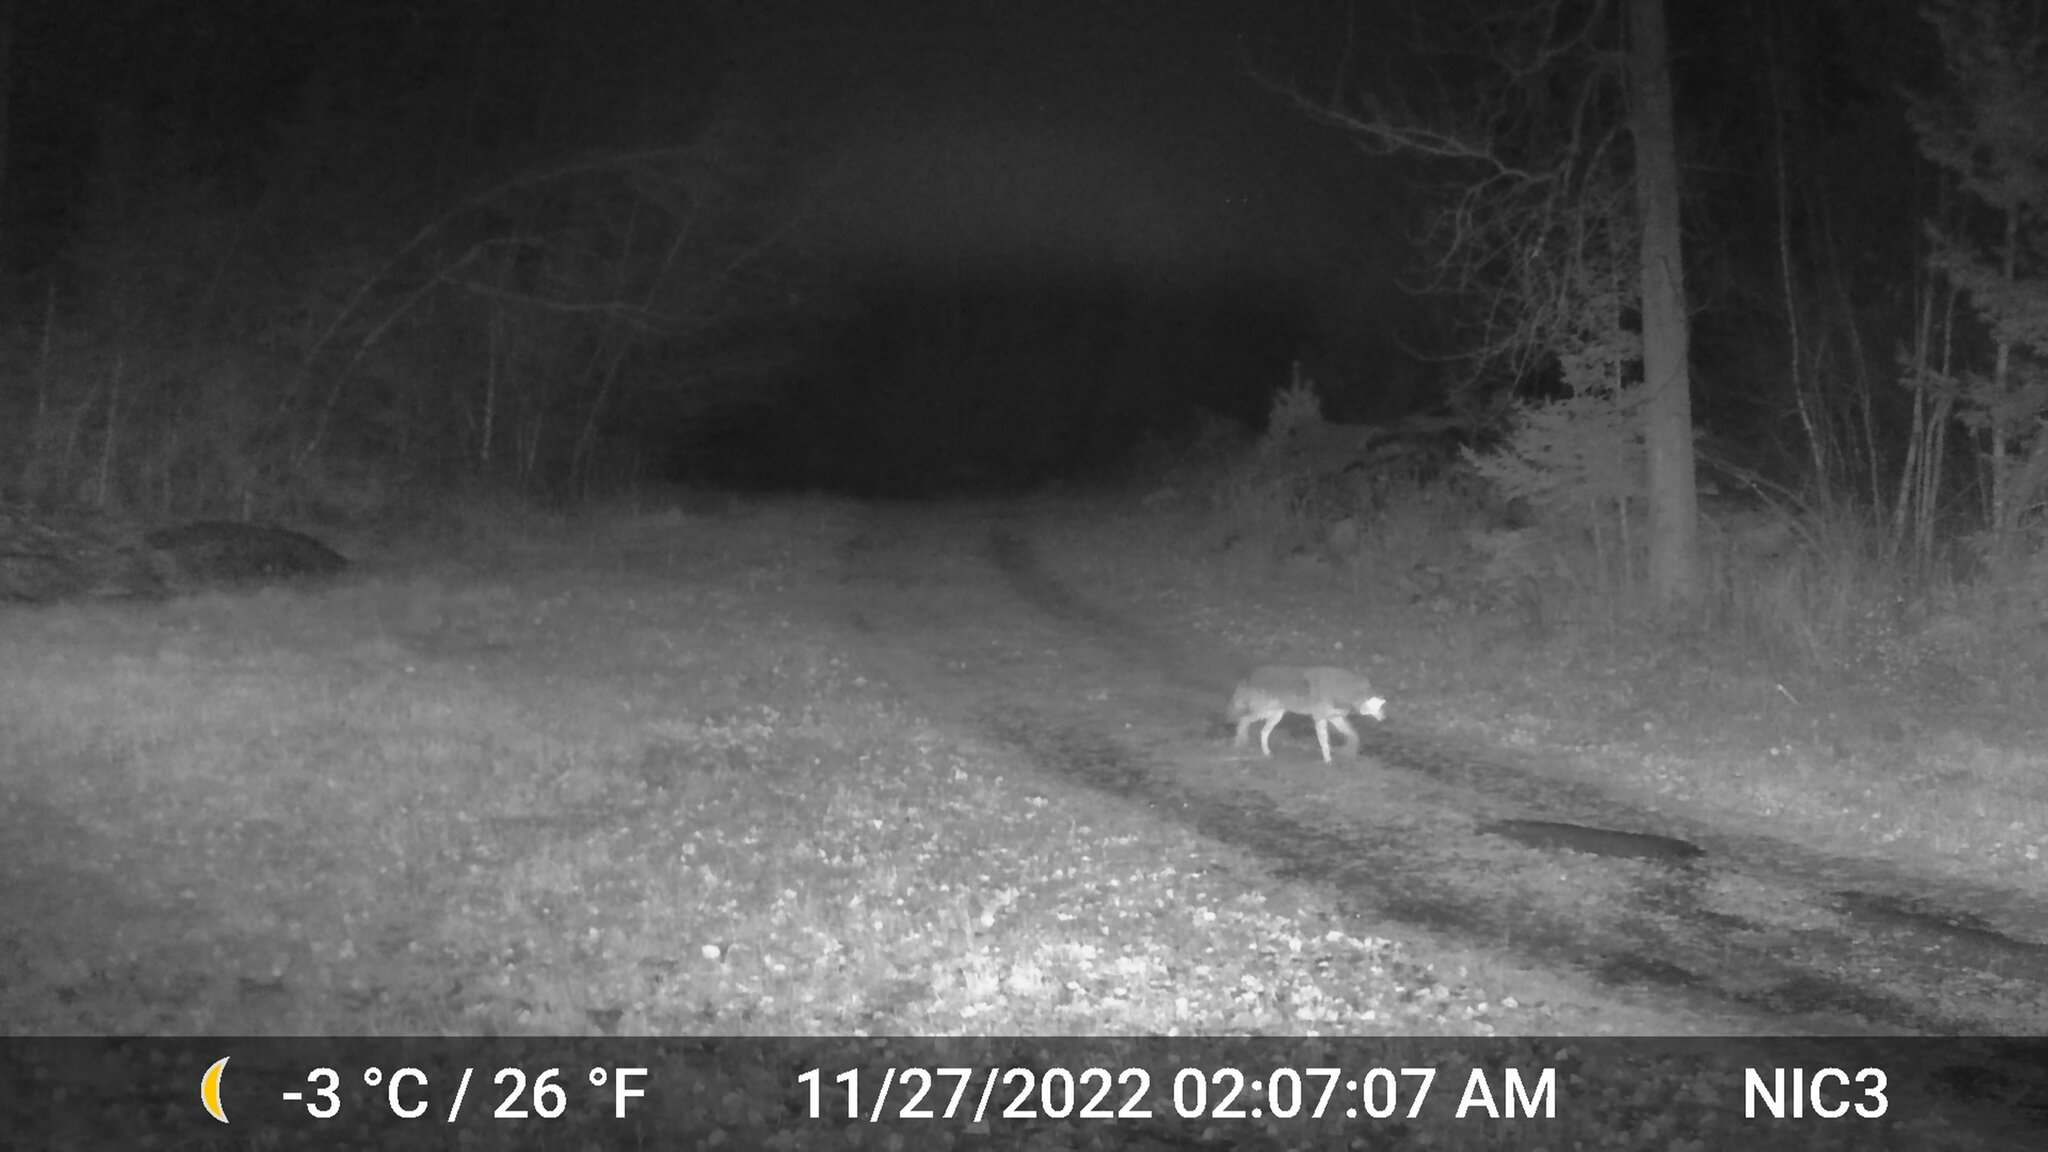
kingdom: Animalia
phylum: Chordata
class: Mammalia
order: Carnivora
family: Canidae
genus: Canis
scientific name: Canis latrans
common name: Coyote
